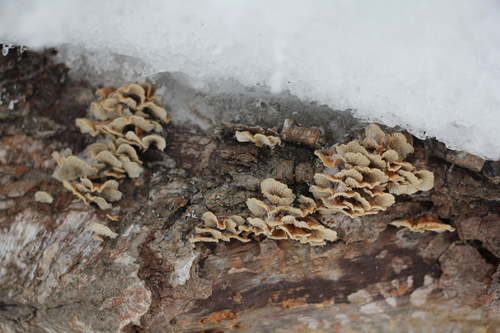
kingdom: Fungi
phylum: Basidiomycota
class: Agaricomycetes
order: Amylocorticiales
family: Amylocorticiaceae
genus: Plicaturopsis
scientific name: Plicaturopsis crispa
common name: Crimped gill
